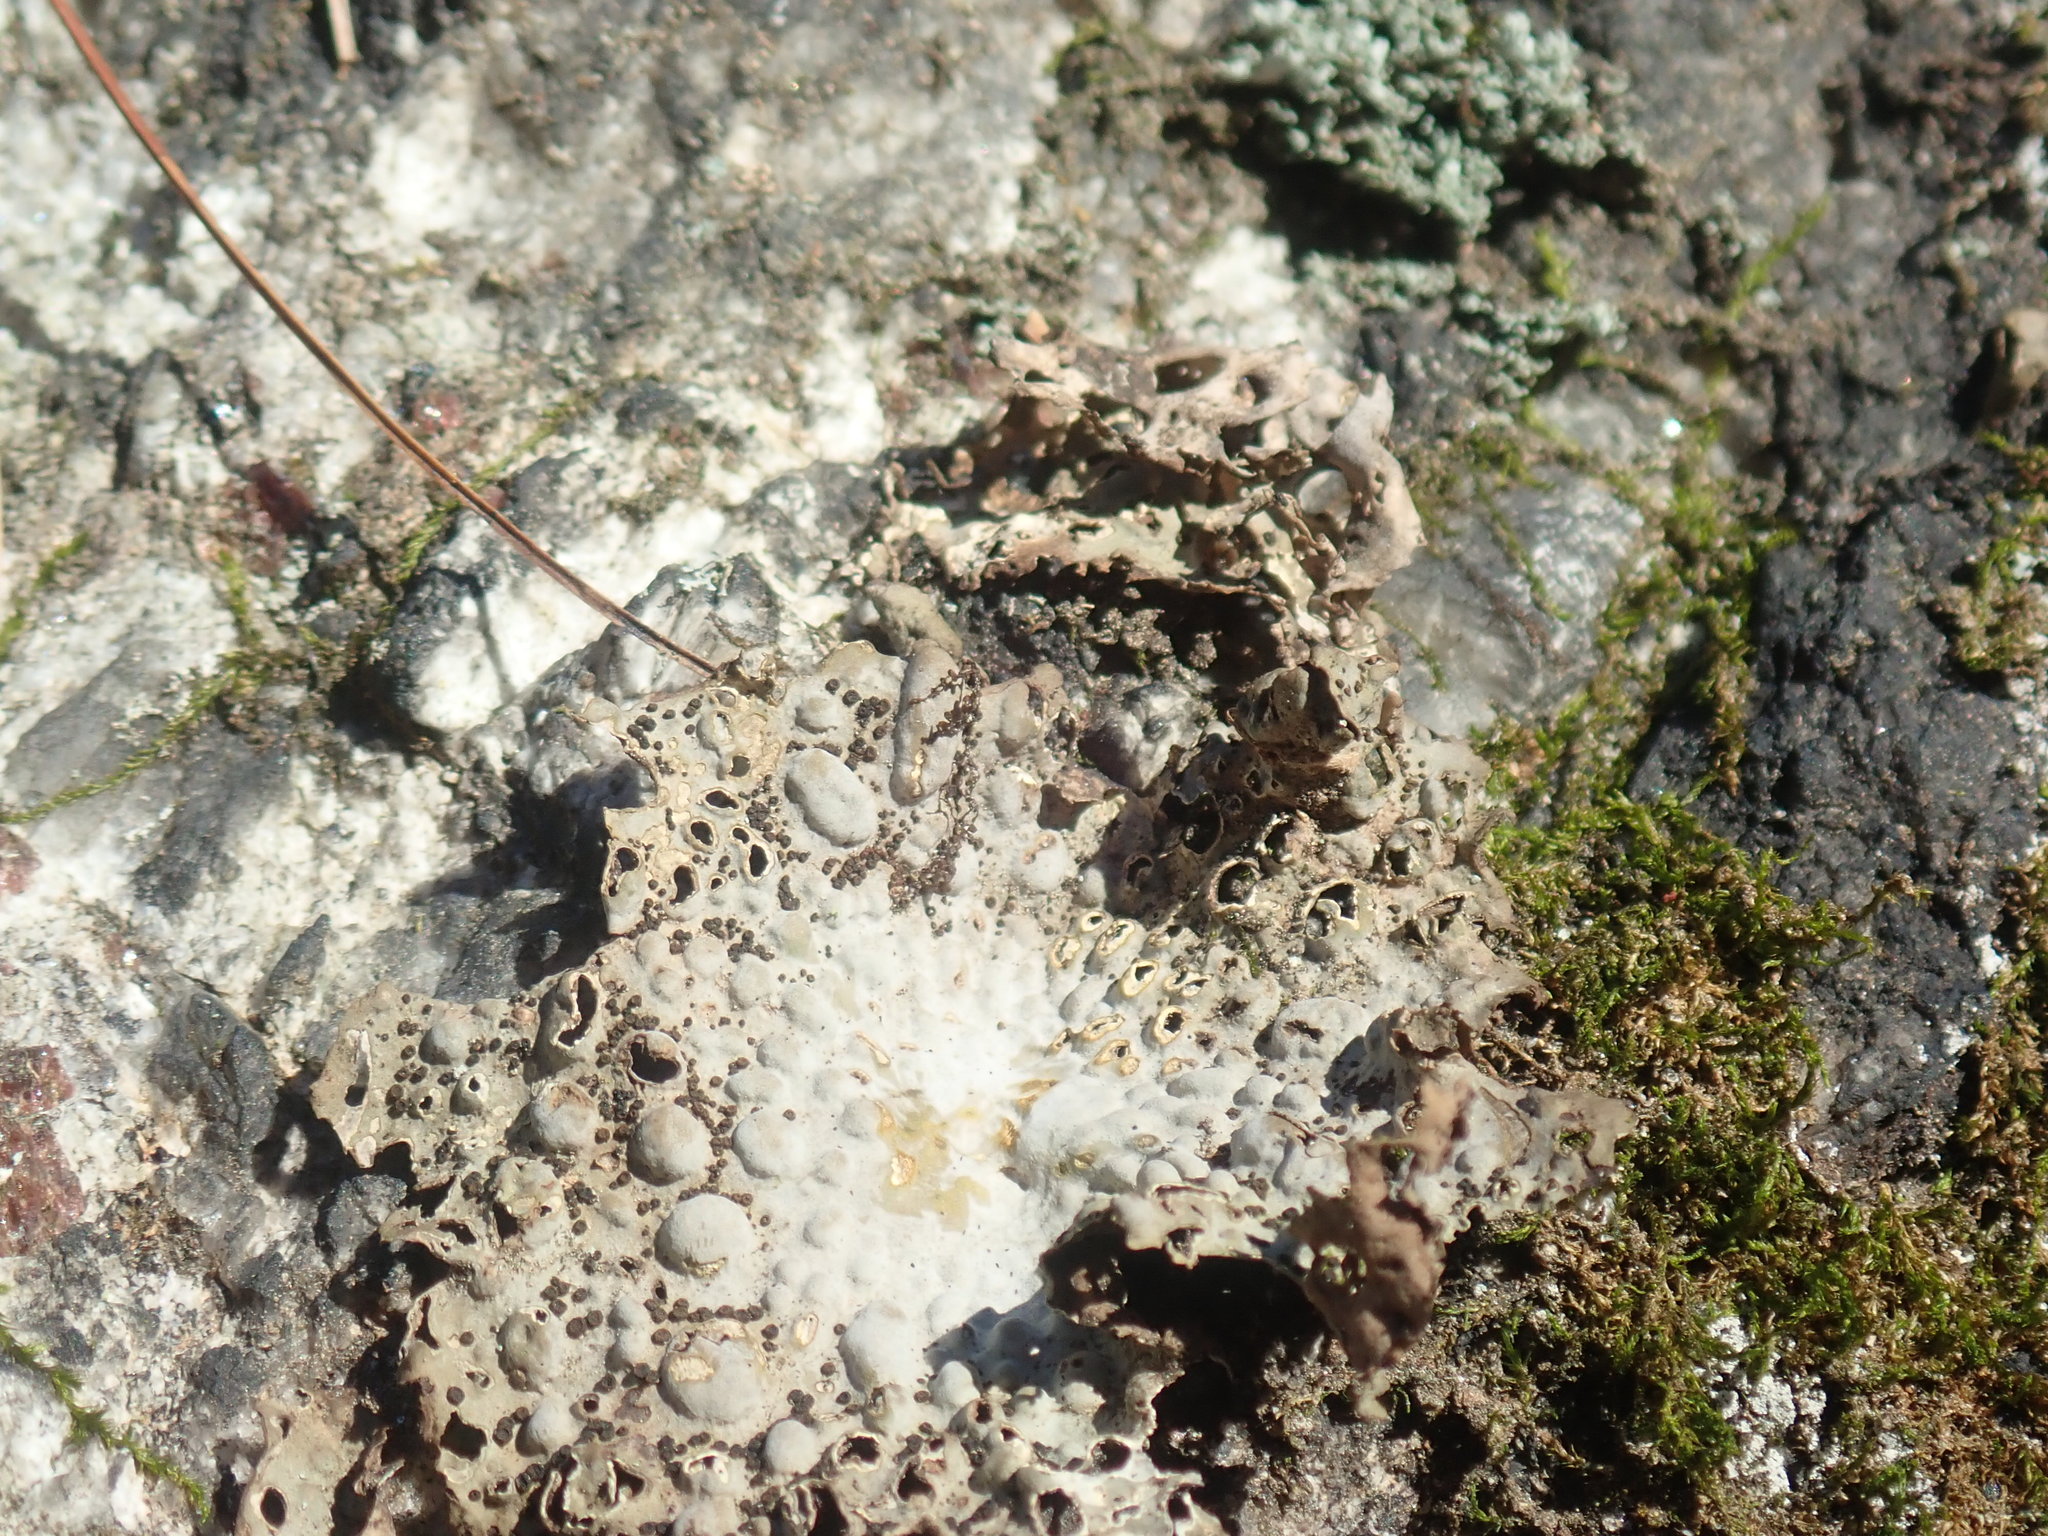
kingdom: Fungi
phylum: Ascomycota
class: Lecanoromycetes
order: Umbilicariales
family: Umbilicariaceae
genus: Lasallia
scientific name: Lasallia papulosa
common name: Common toadskin lichen
